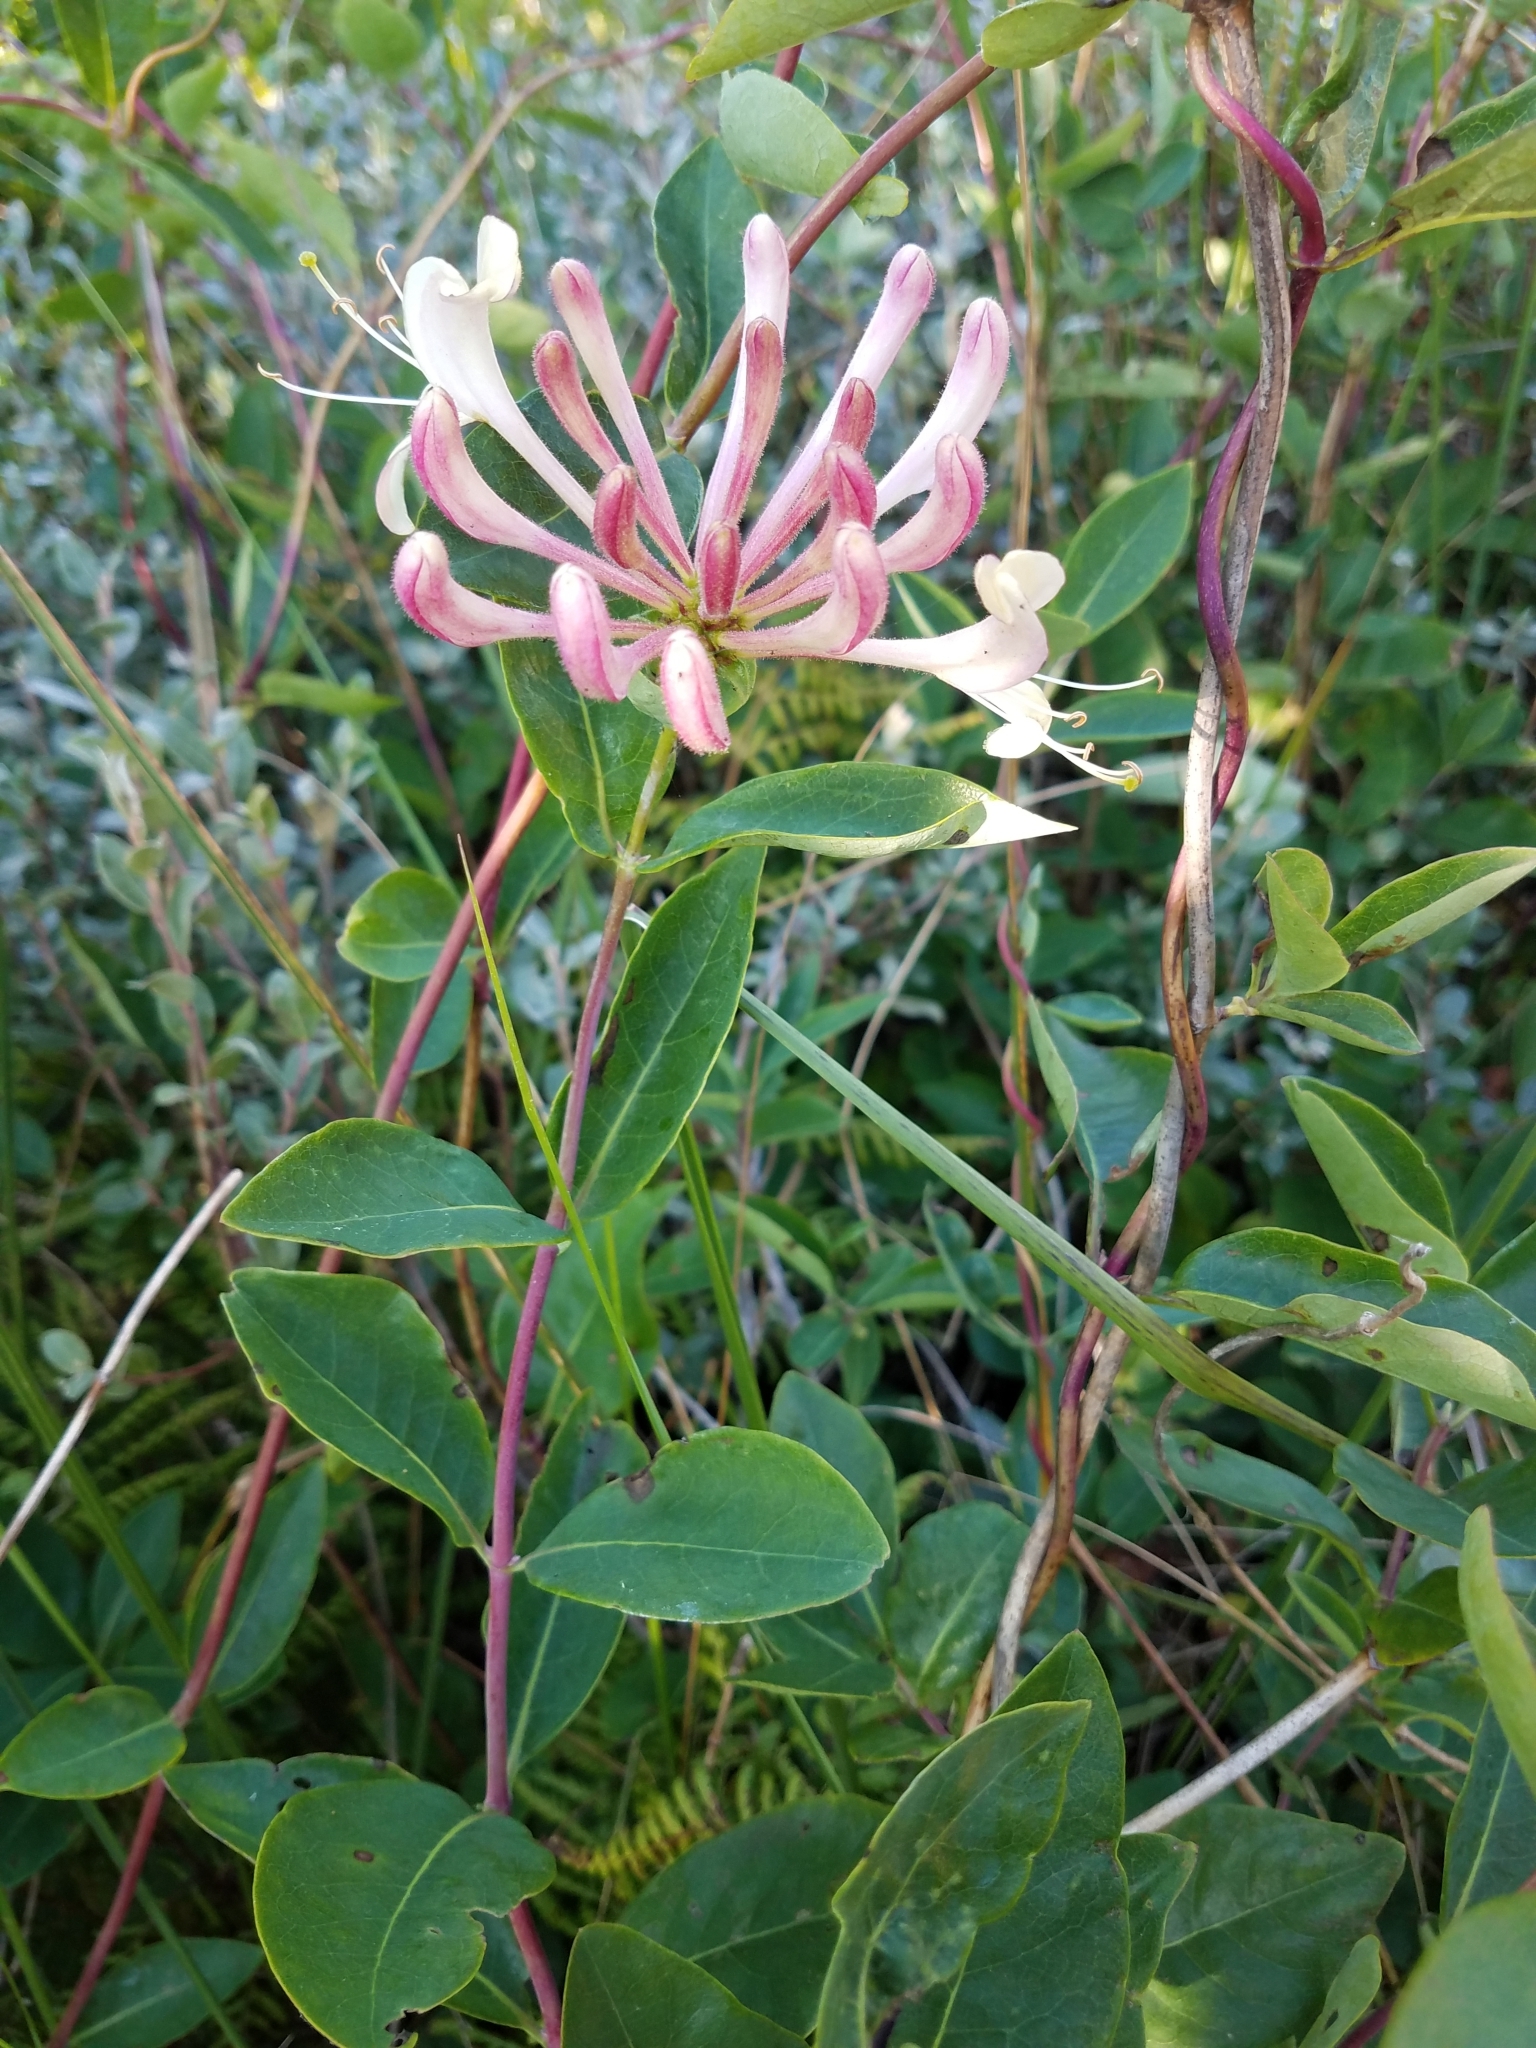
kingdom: Plantae
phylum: Tracheophyta
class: Magnoliopsida
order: Dipsacales
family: Caprifoliaceae
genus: Lonicera
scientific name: Lonicera periclymenum
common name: European honeysuckle
